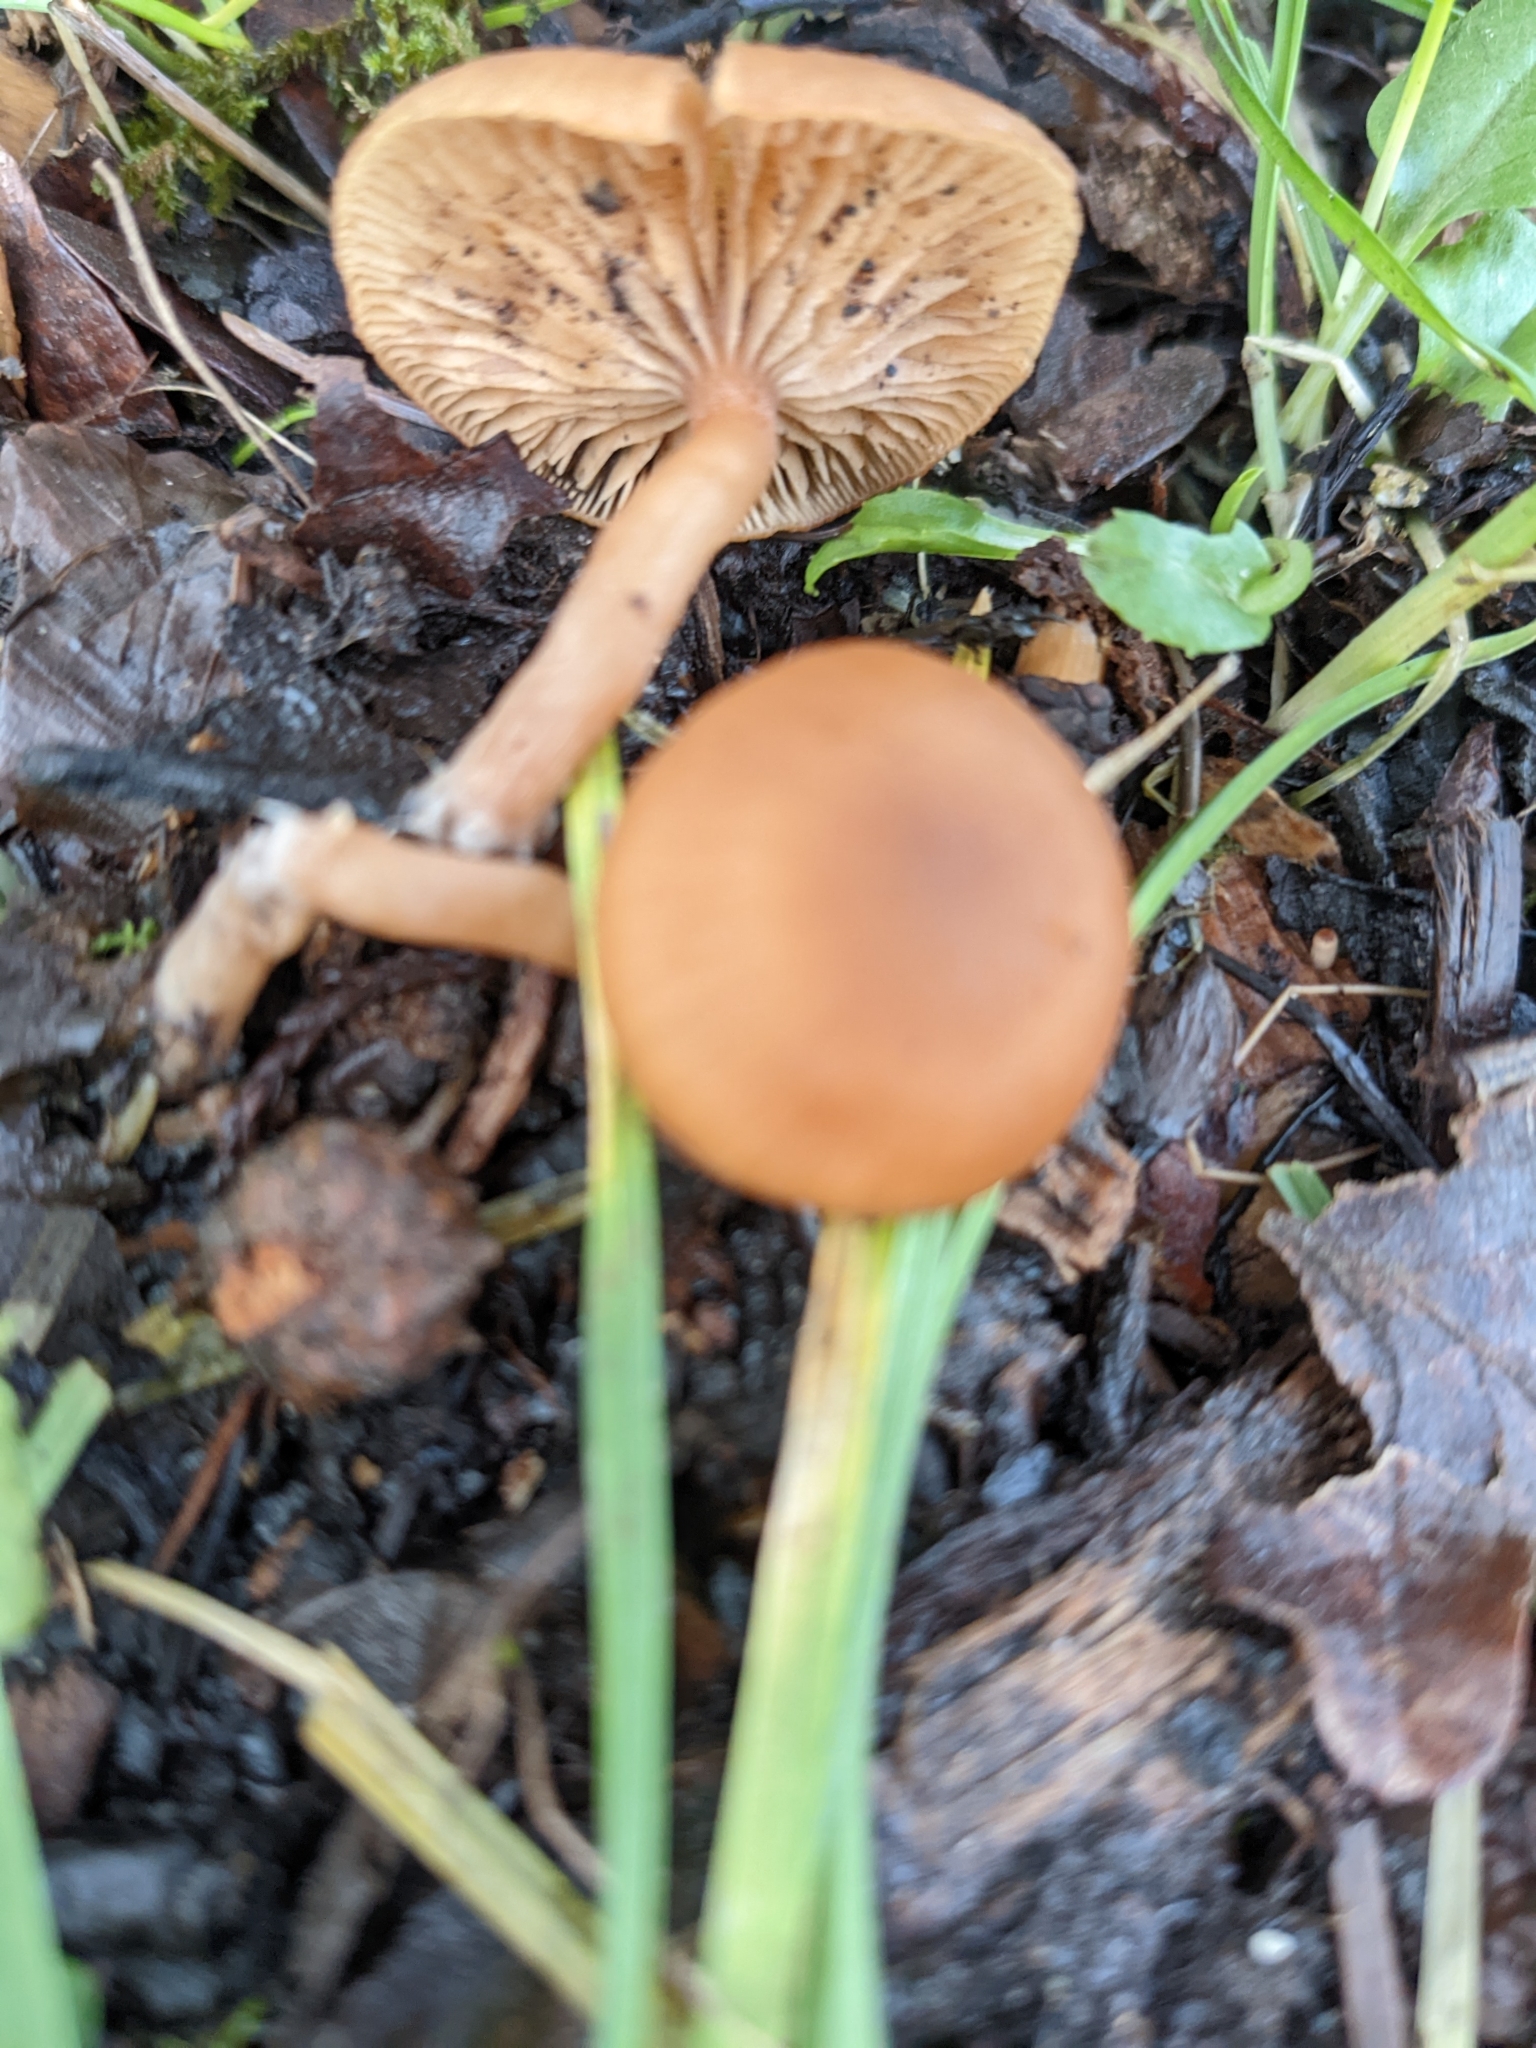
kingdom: Fungi
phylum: Basidiomycota
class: Agaricomycetes
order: Agaricales
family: Tubariaceae
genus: Tubaria
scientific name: Tubaria furfuracea
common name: Scurfy twiglet
